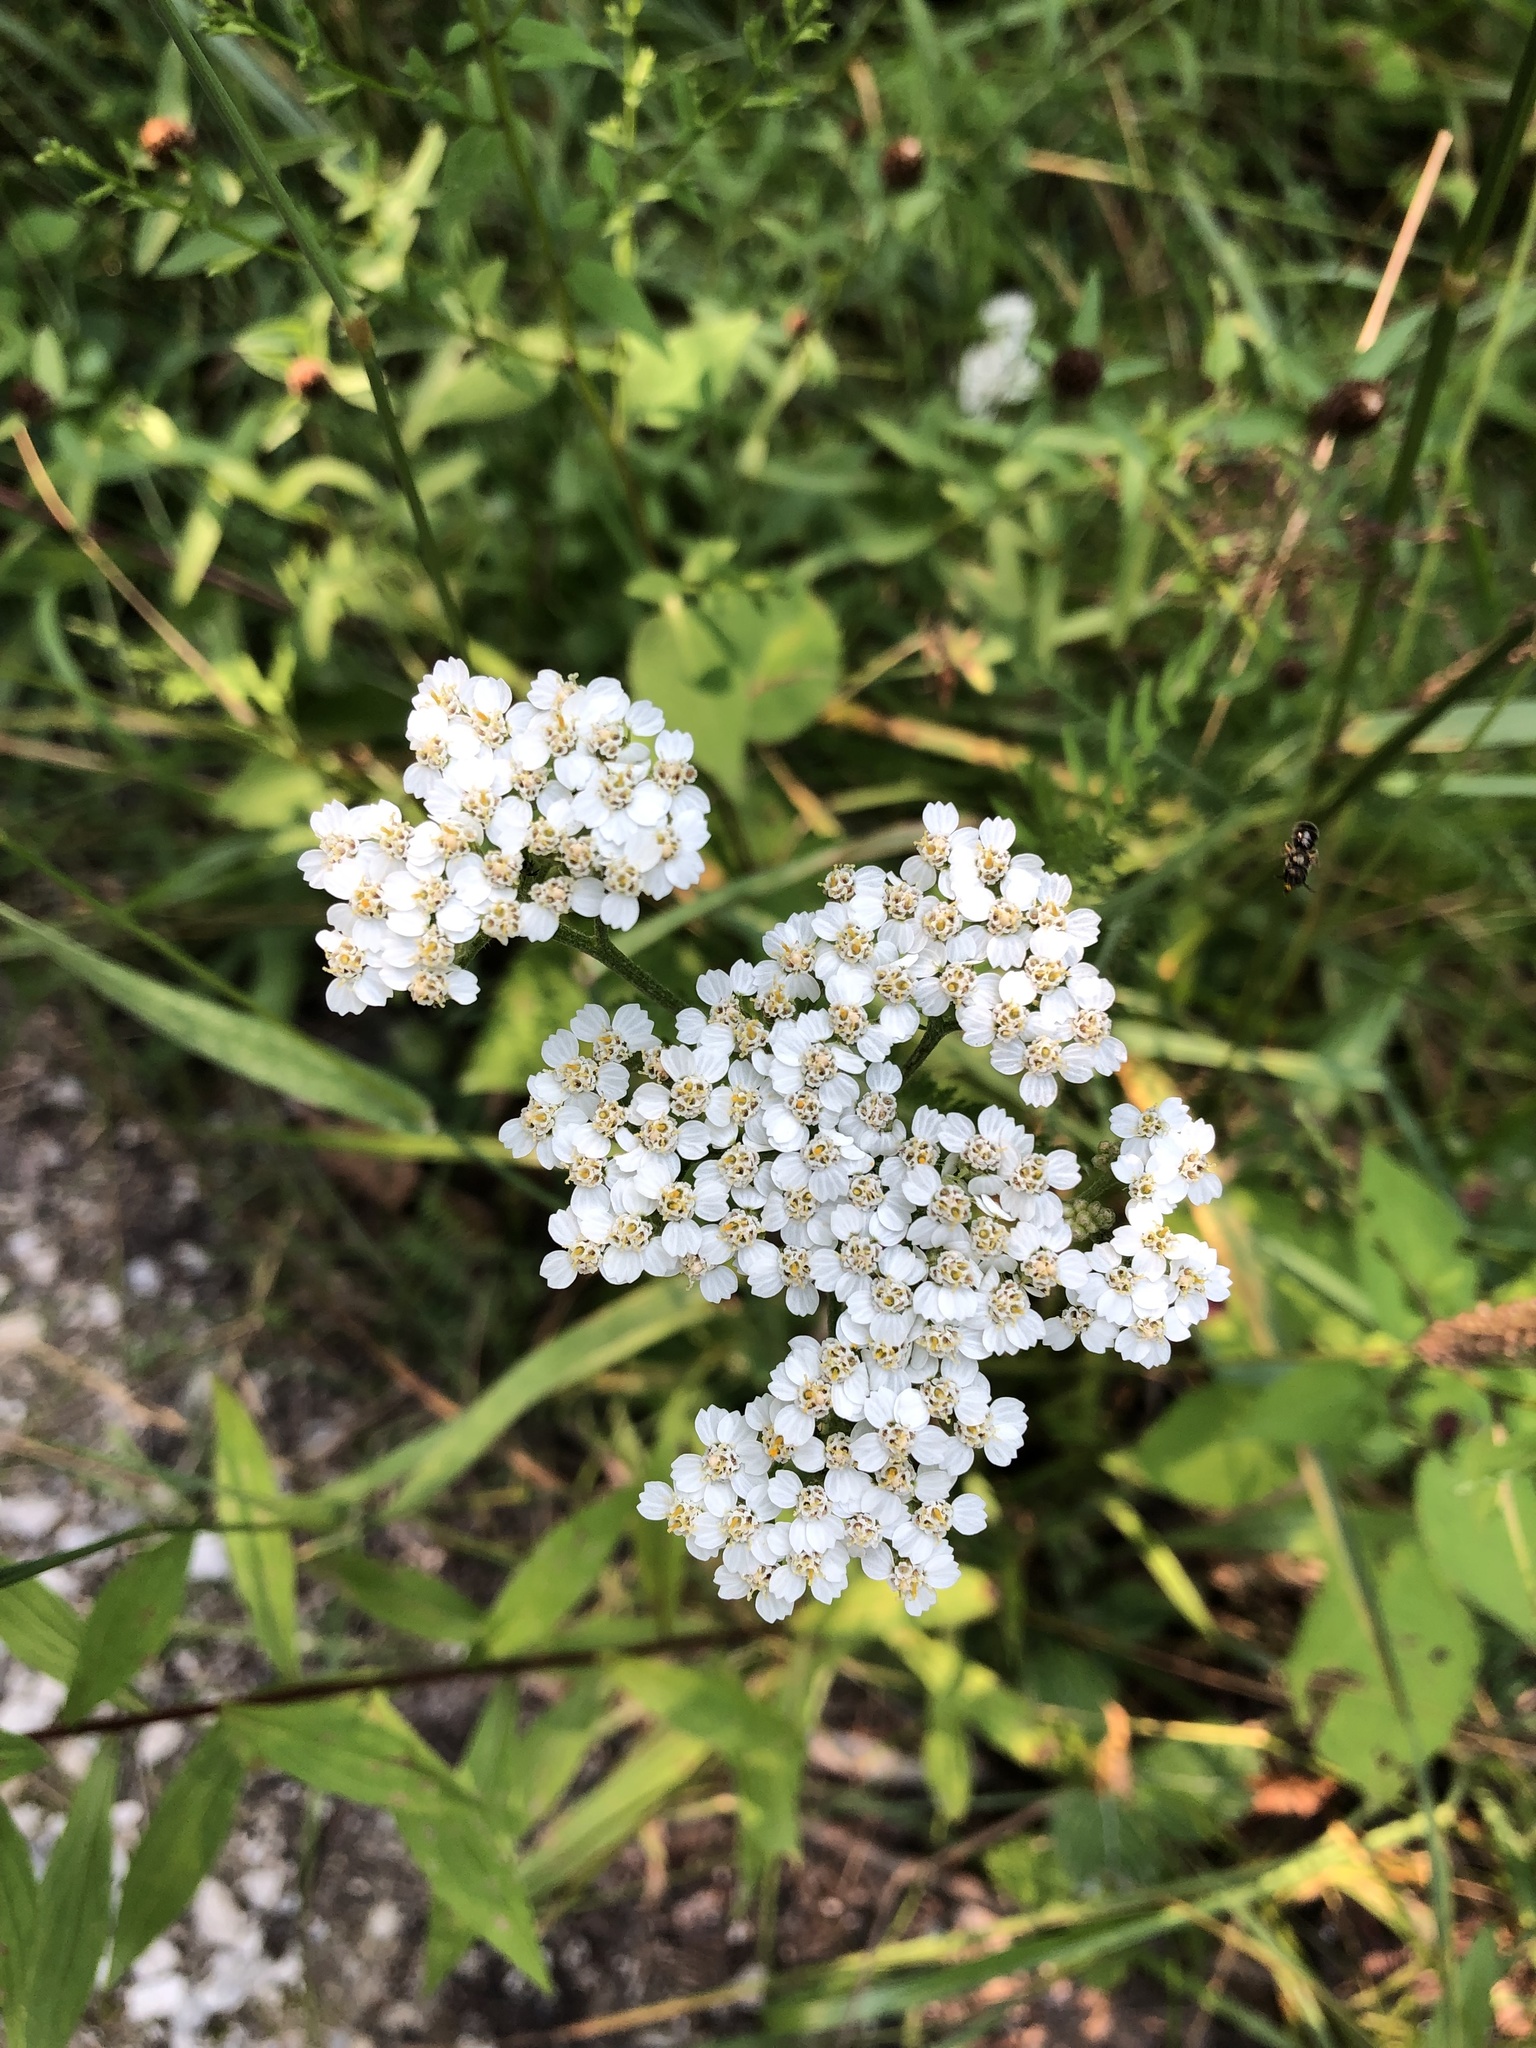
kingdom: Plantae
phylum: Tracheophyta
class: Magnoliopsida
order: Asterales
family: Asteraceae
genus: Achillea
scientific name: Achillea millefolium
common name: Yarrow
